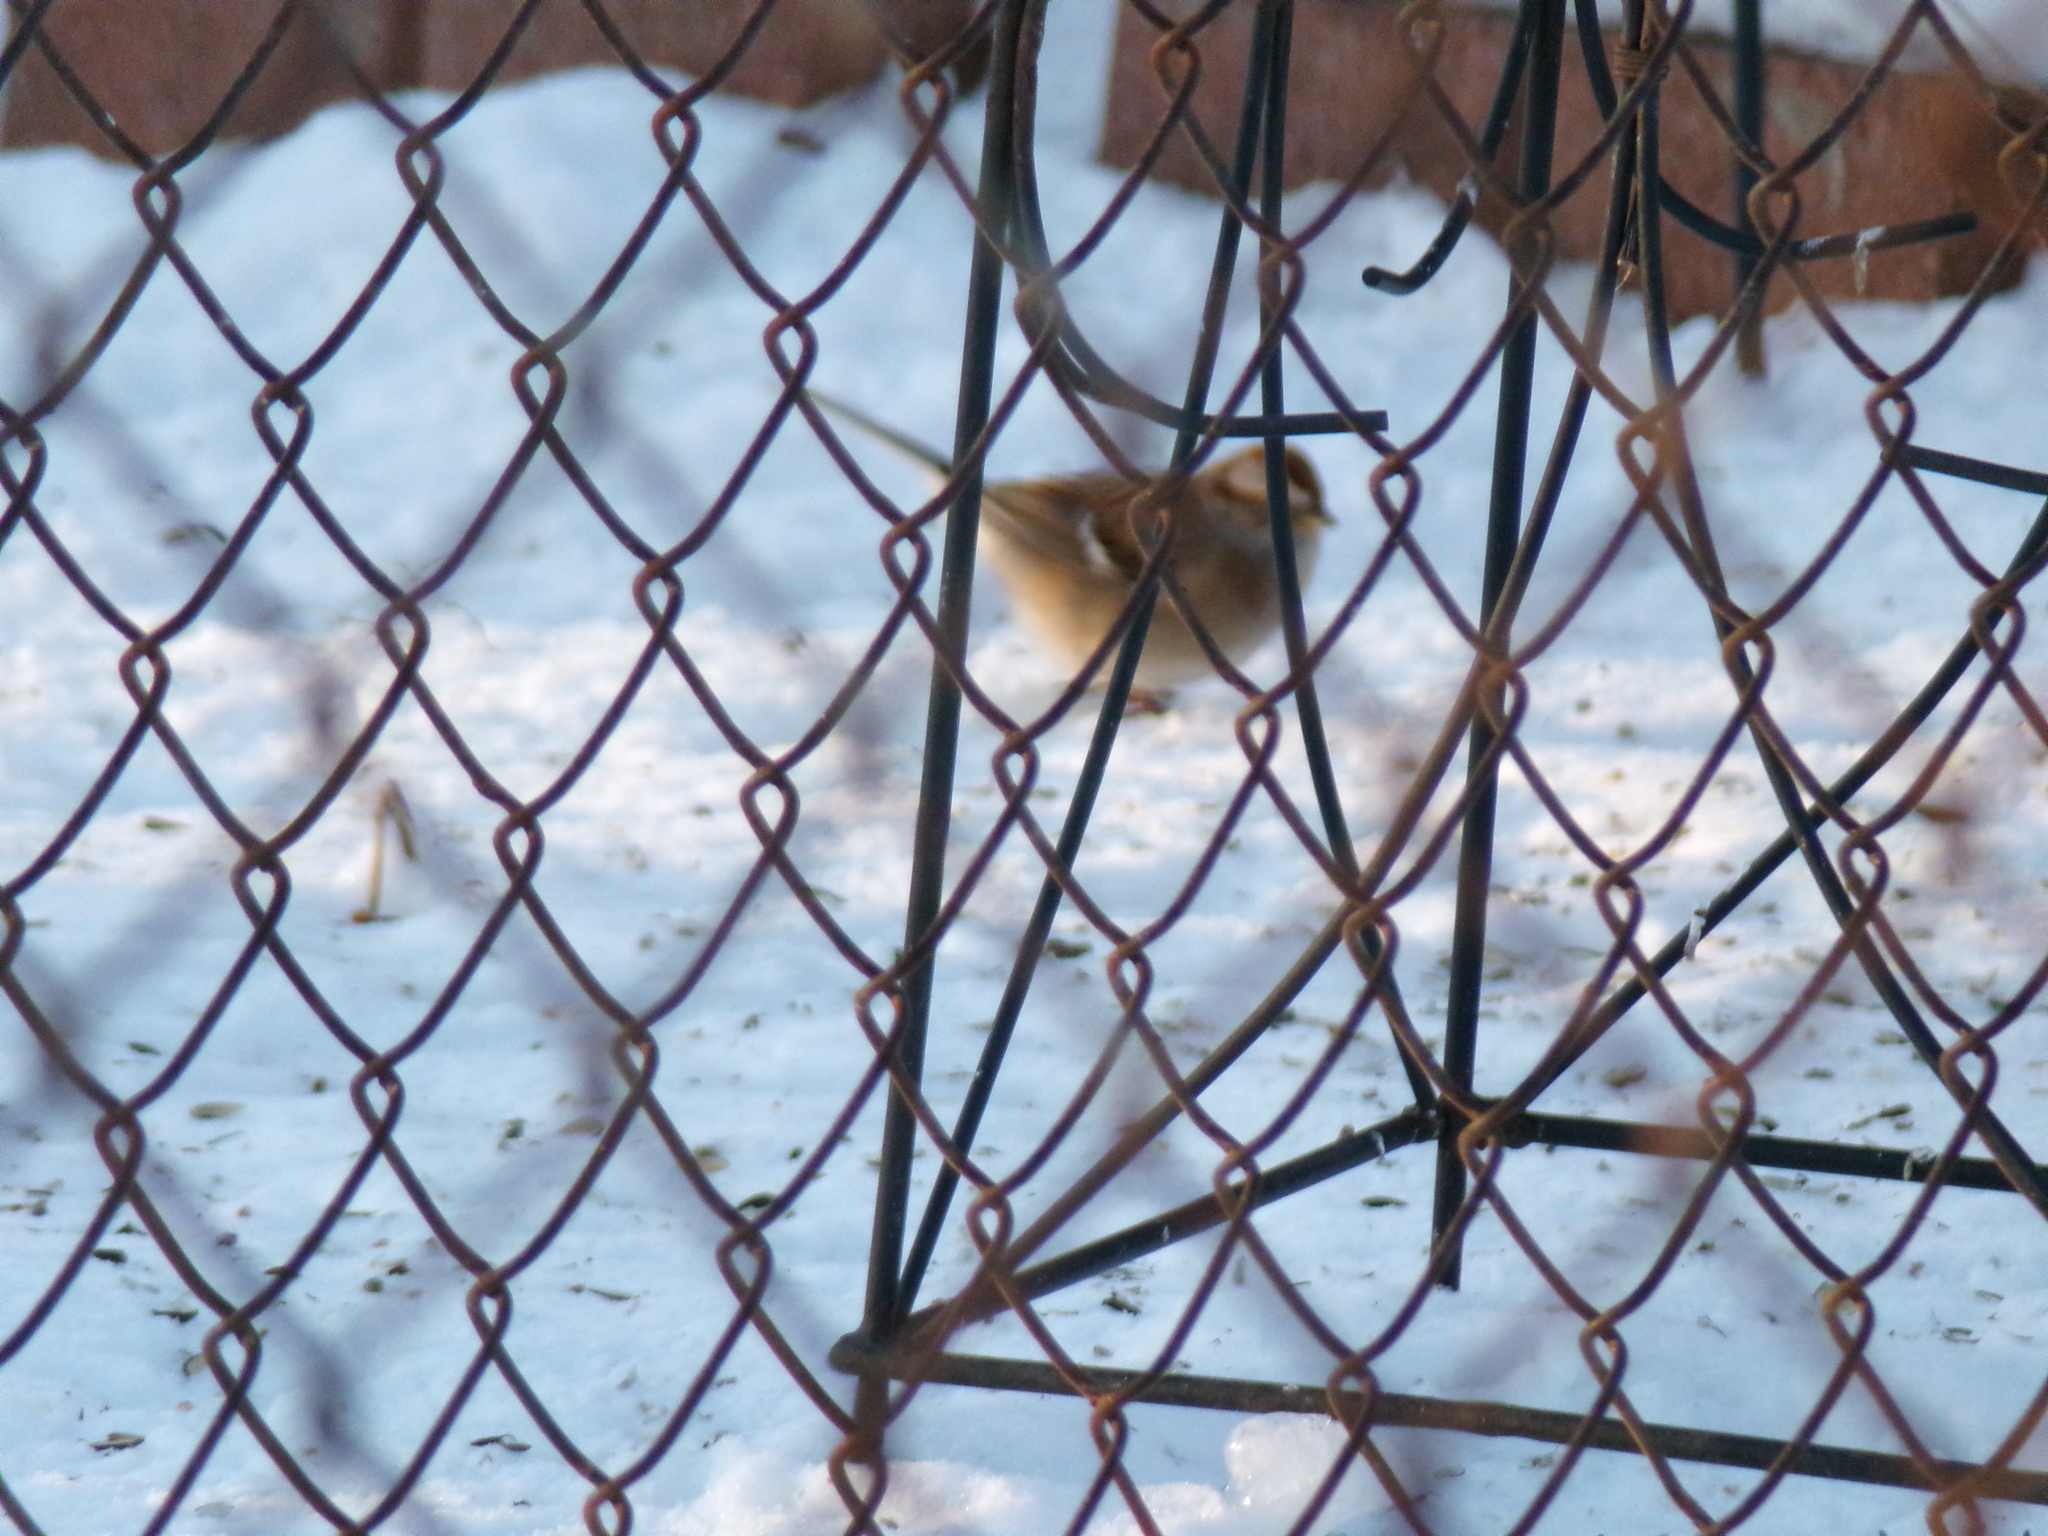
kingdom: Animalia
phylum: Chordata
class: Aves
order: Passeriformes
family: Passerellidae
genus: Spizelloides
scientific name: Spizelloides arborea
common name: American tree sparrow
